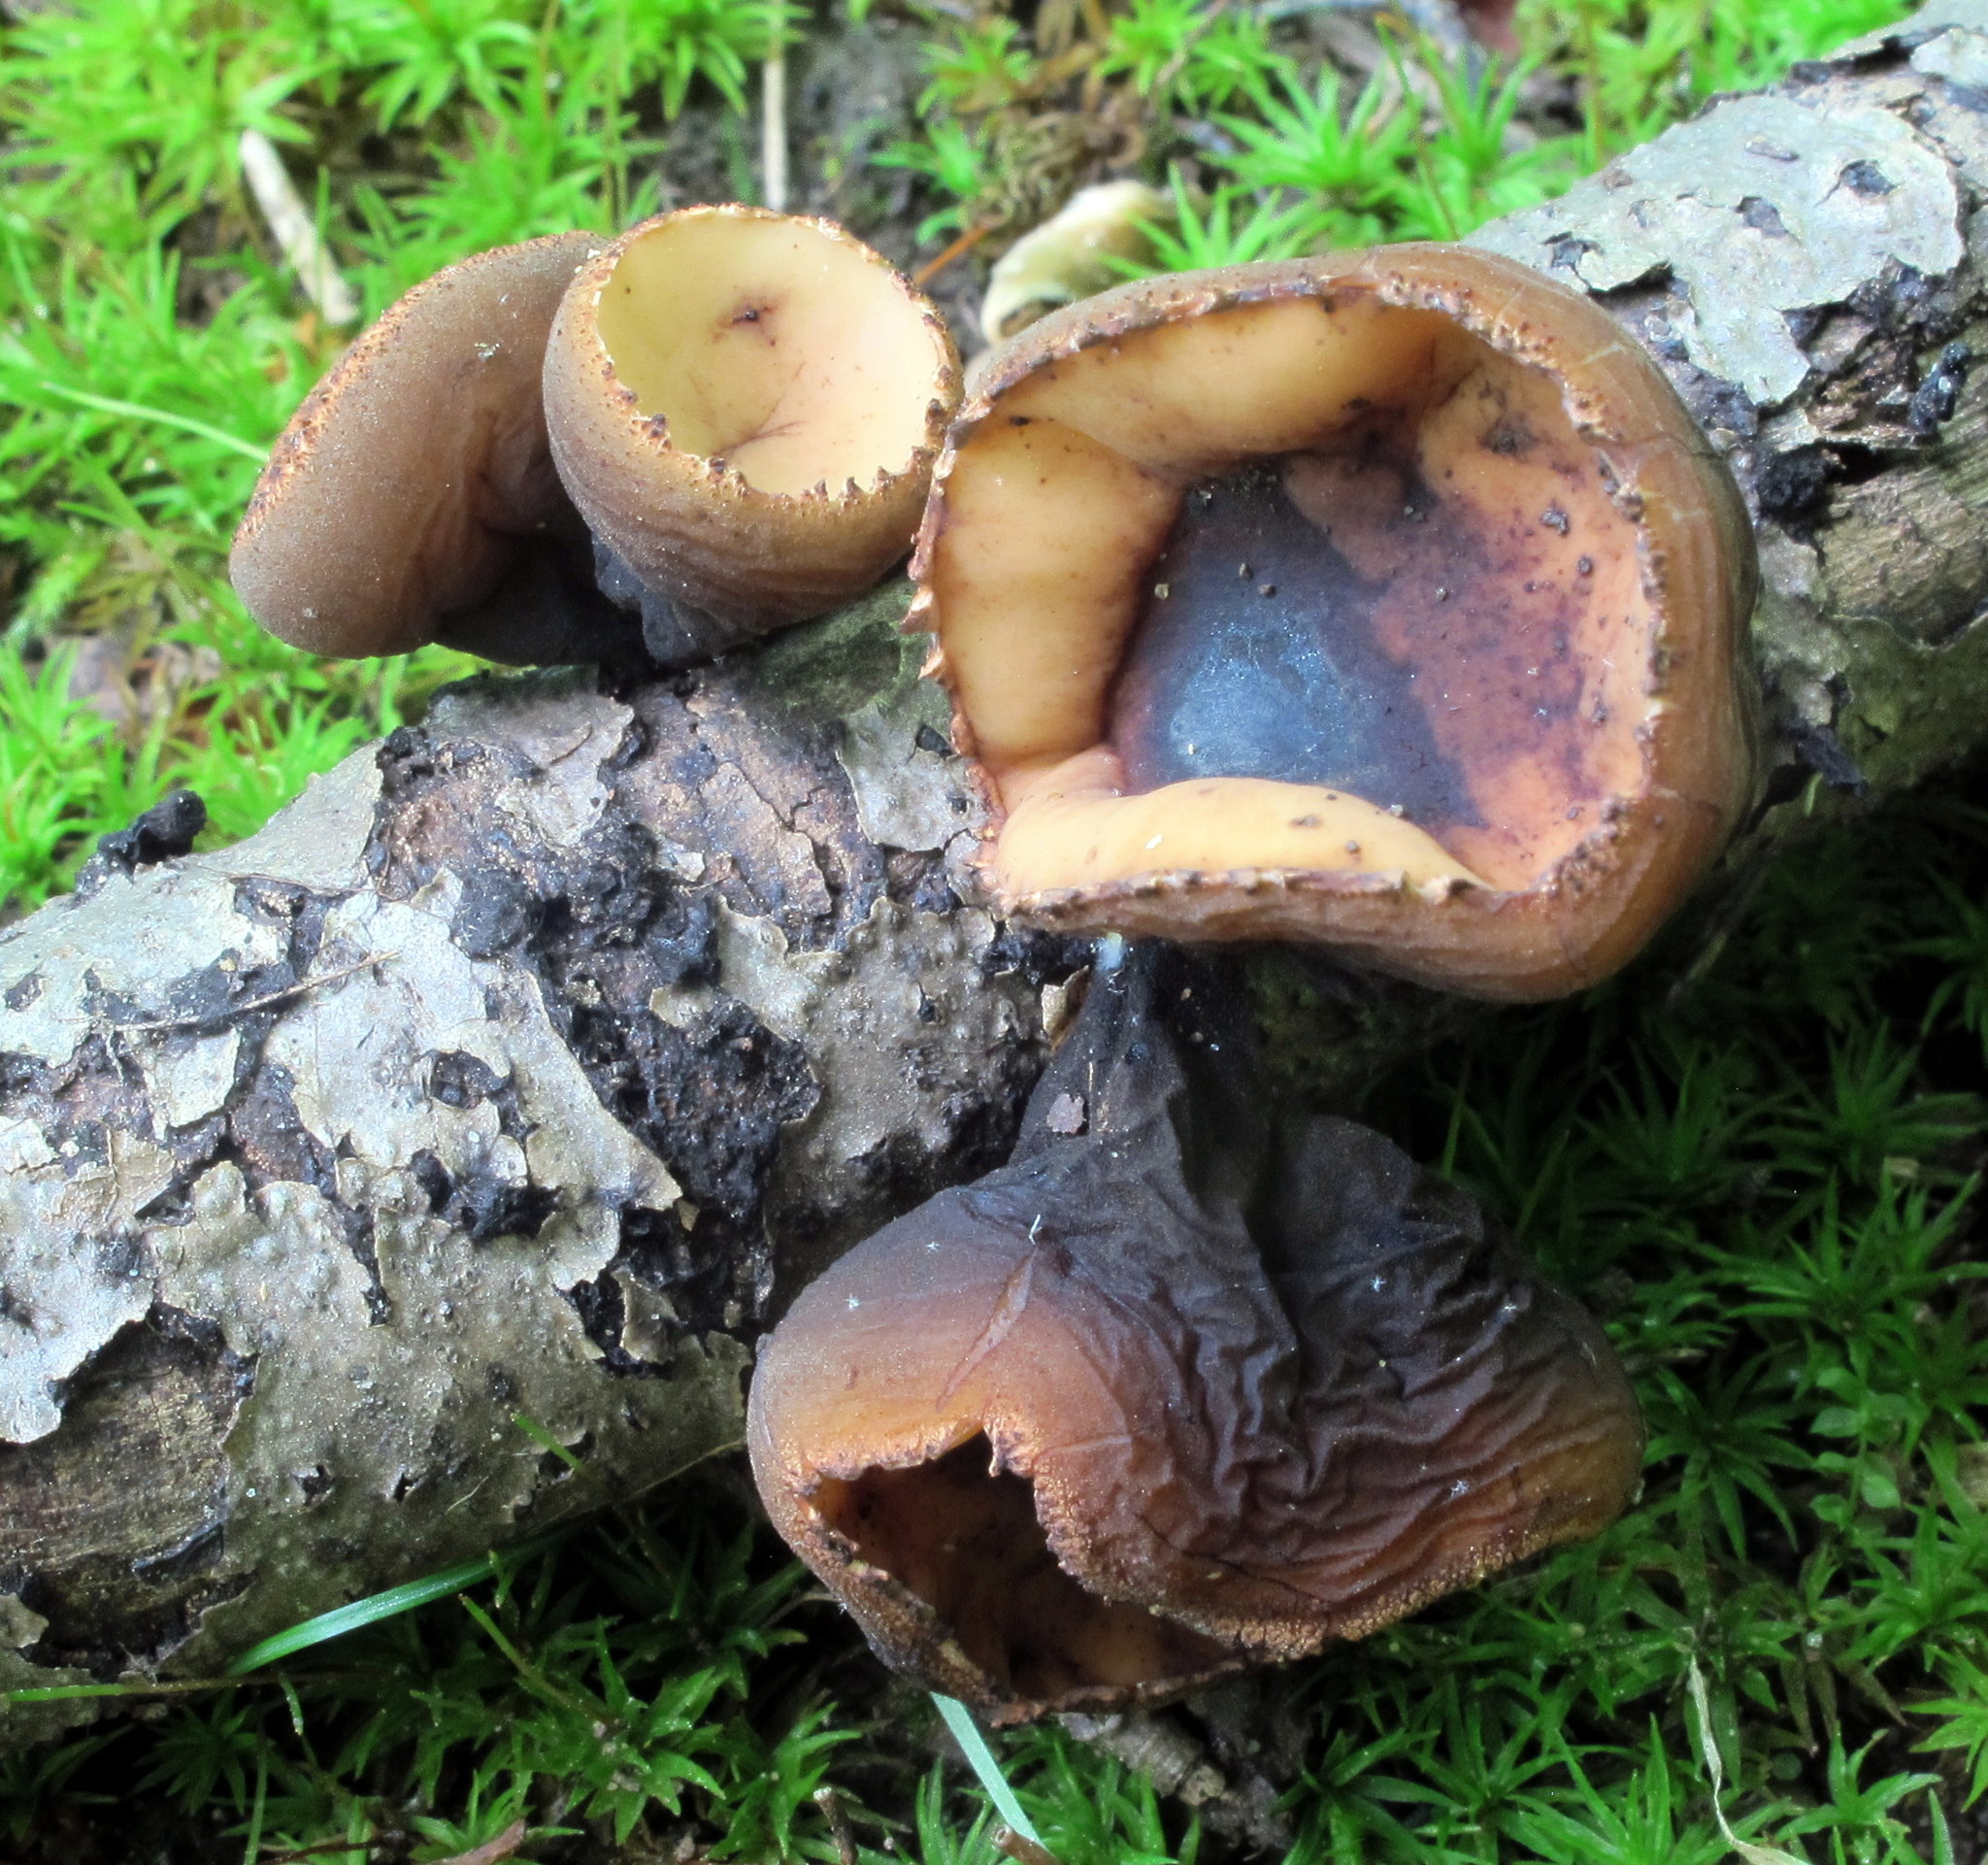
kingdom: Fungi
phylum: Ascomycota
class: Pezizomycetes
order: Pezizales
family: Sarcosomataceae
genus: Galiella
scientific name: Galiella rufa
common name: Hairy rubber cup
